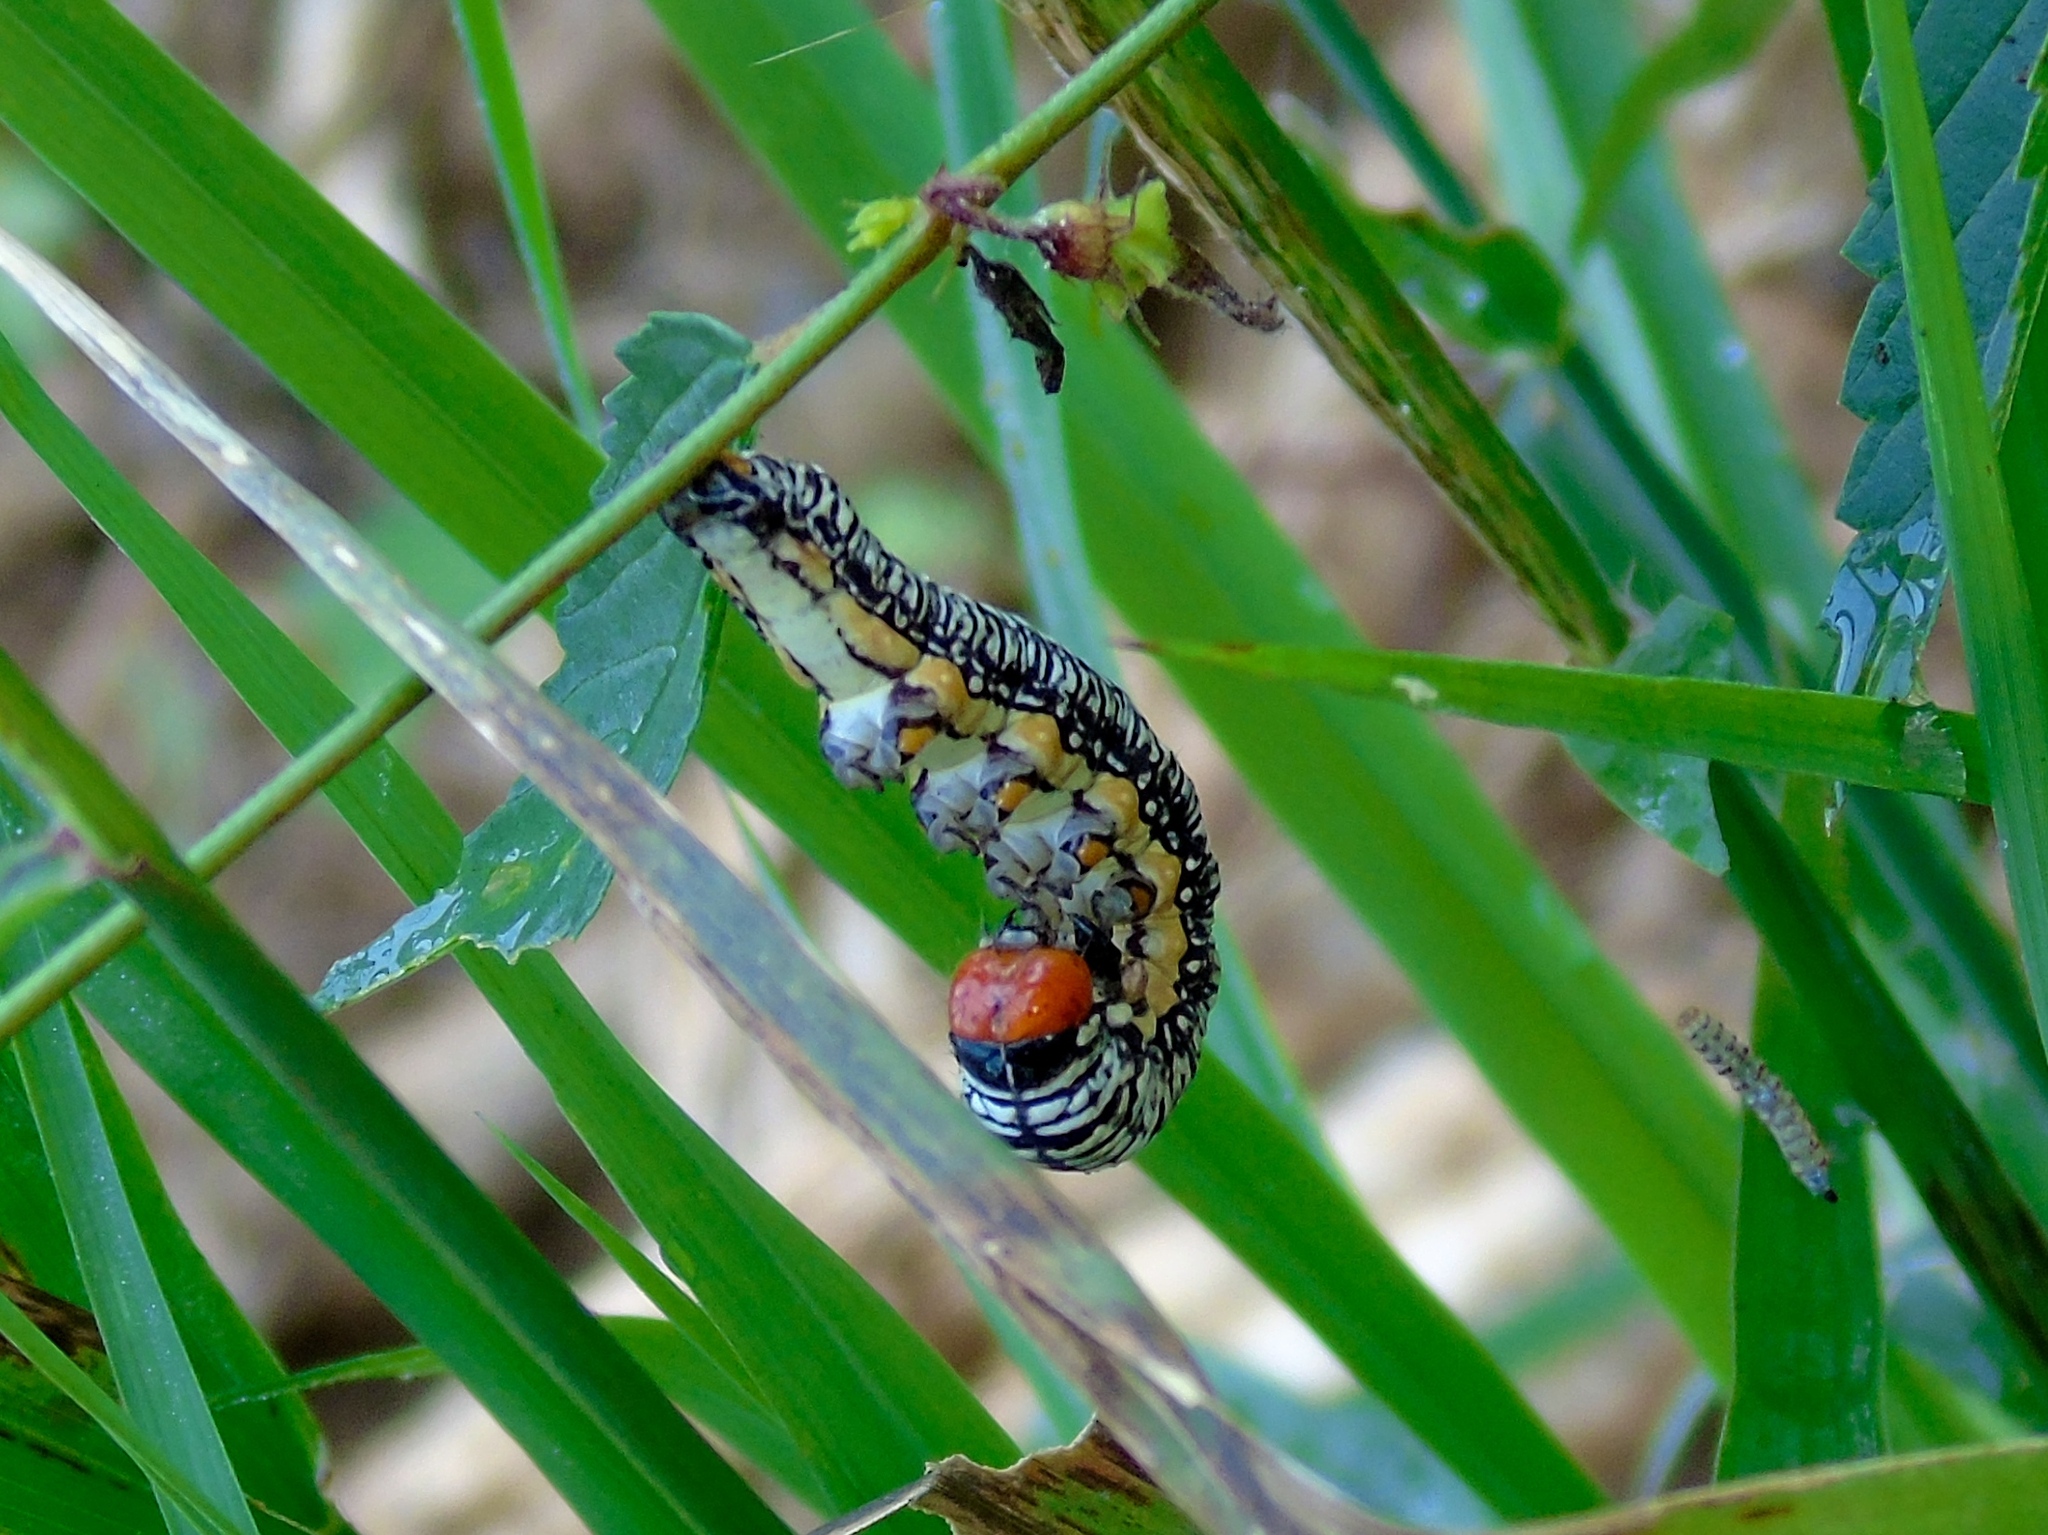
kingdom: Animalia
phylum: Arthropoda
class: Insecta
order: Lepidoptera
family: Erebidae
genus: Diphthera
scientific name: Diphthera festiva
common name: Hieroglyphic moth
